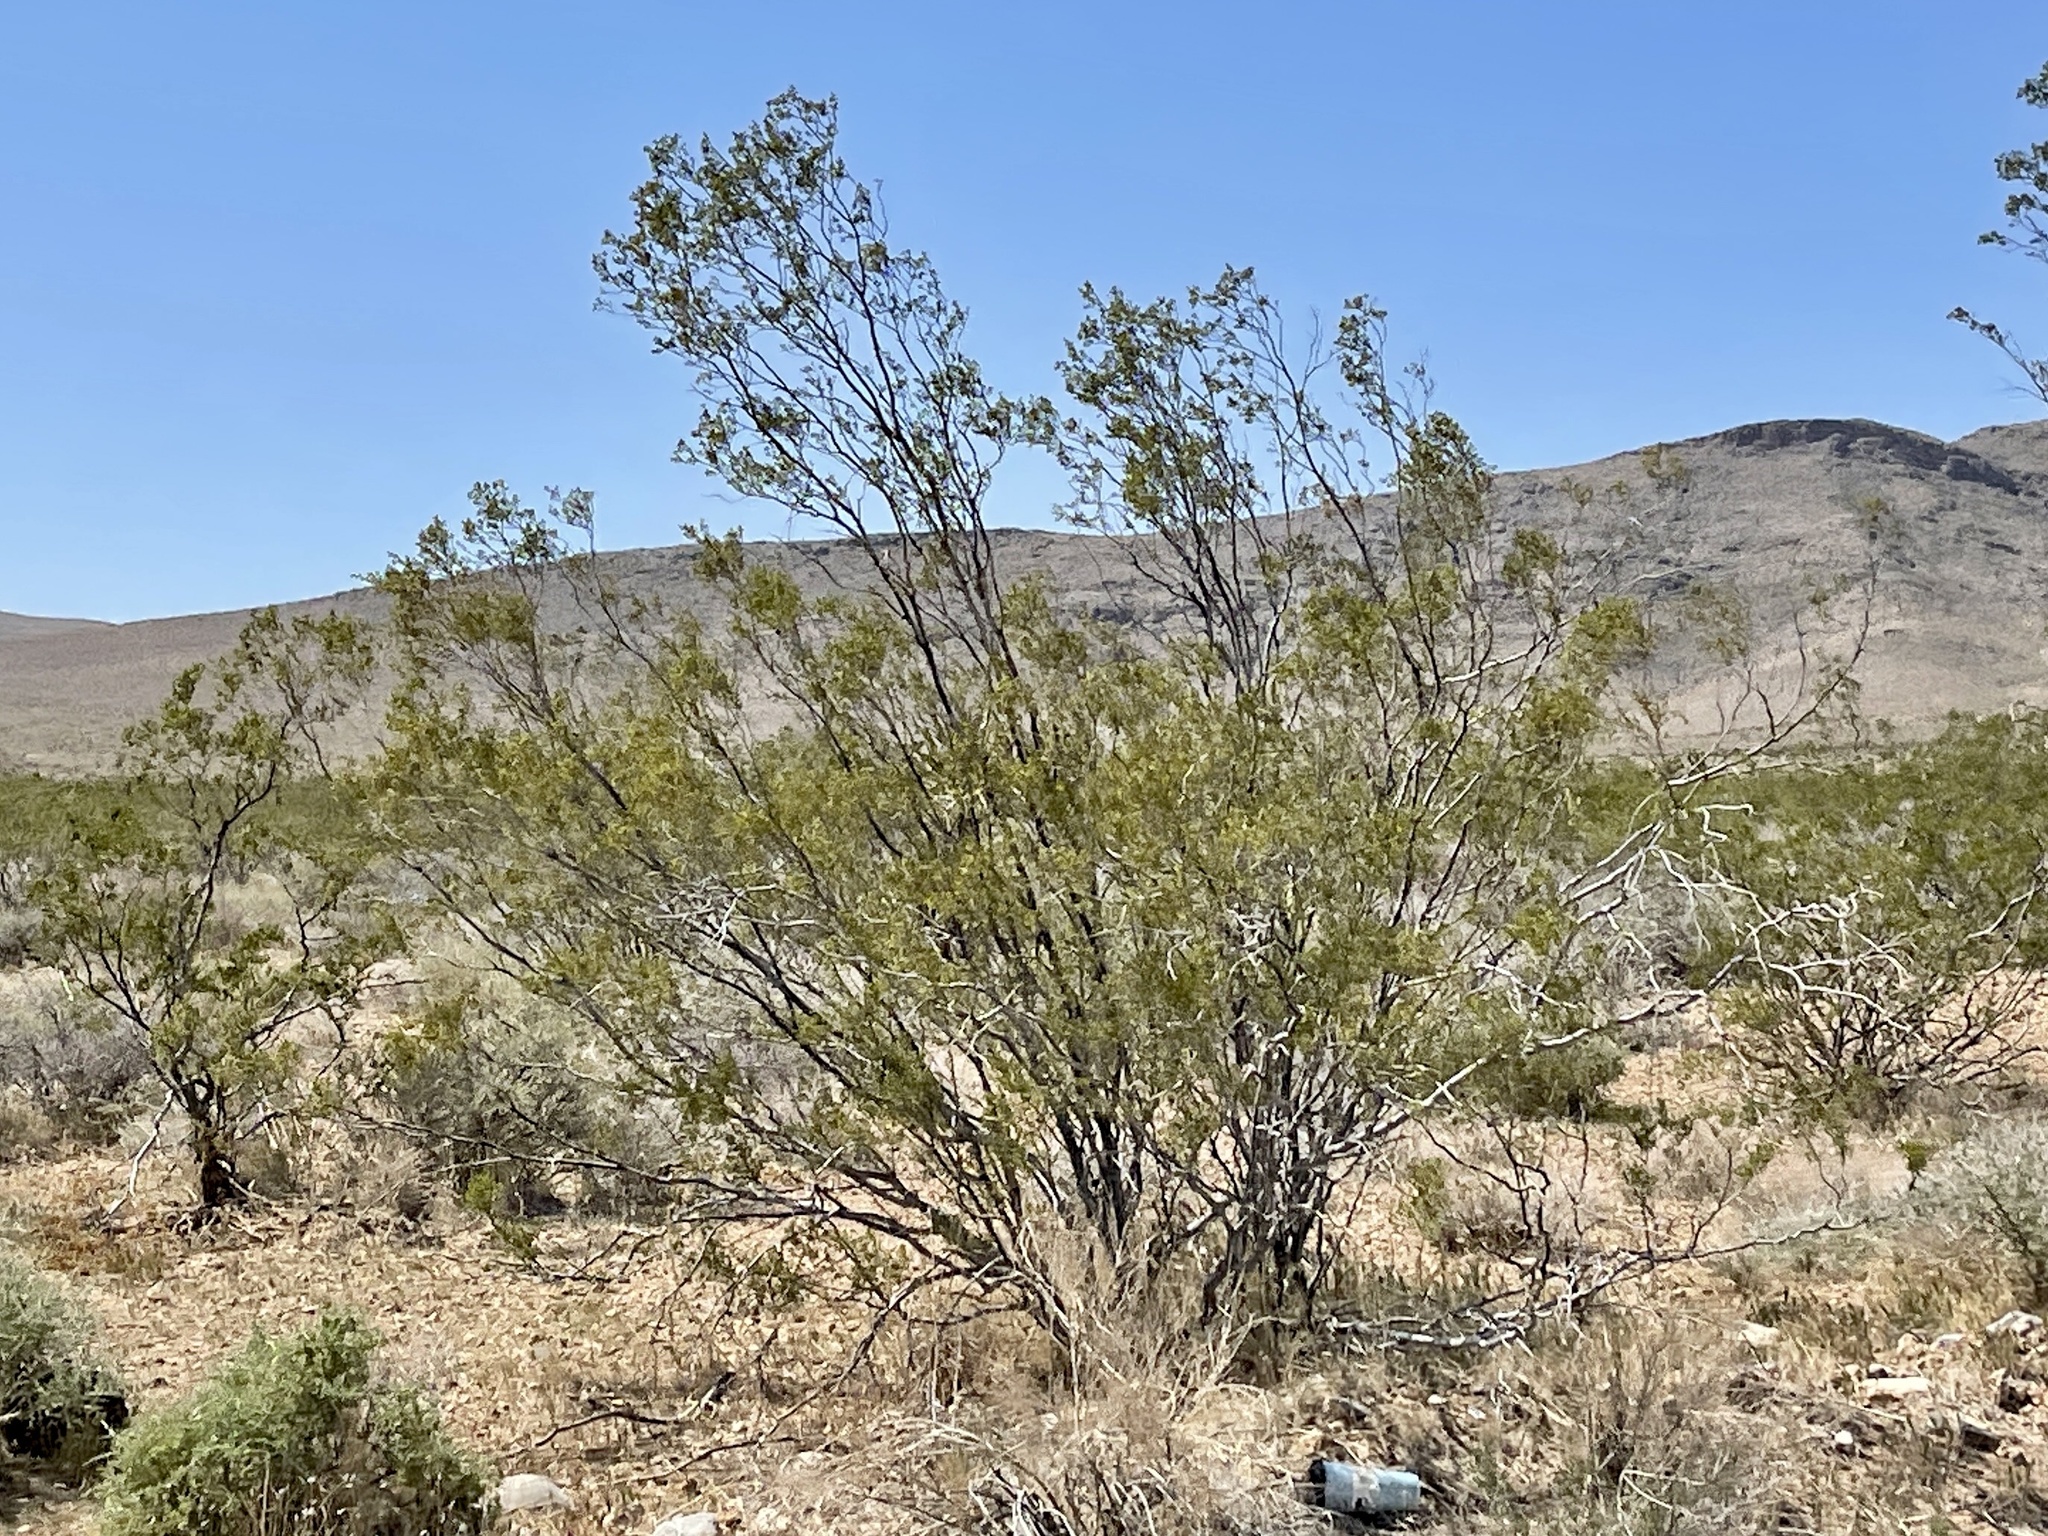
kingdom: Plantae
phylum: Tracheophyta
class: Magnoliopsida
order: Zygophyllales
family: Zygophyllaceae
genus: Larrea
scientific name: Larrea tridentata
